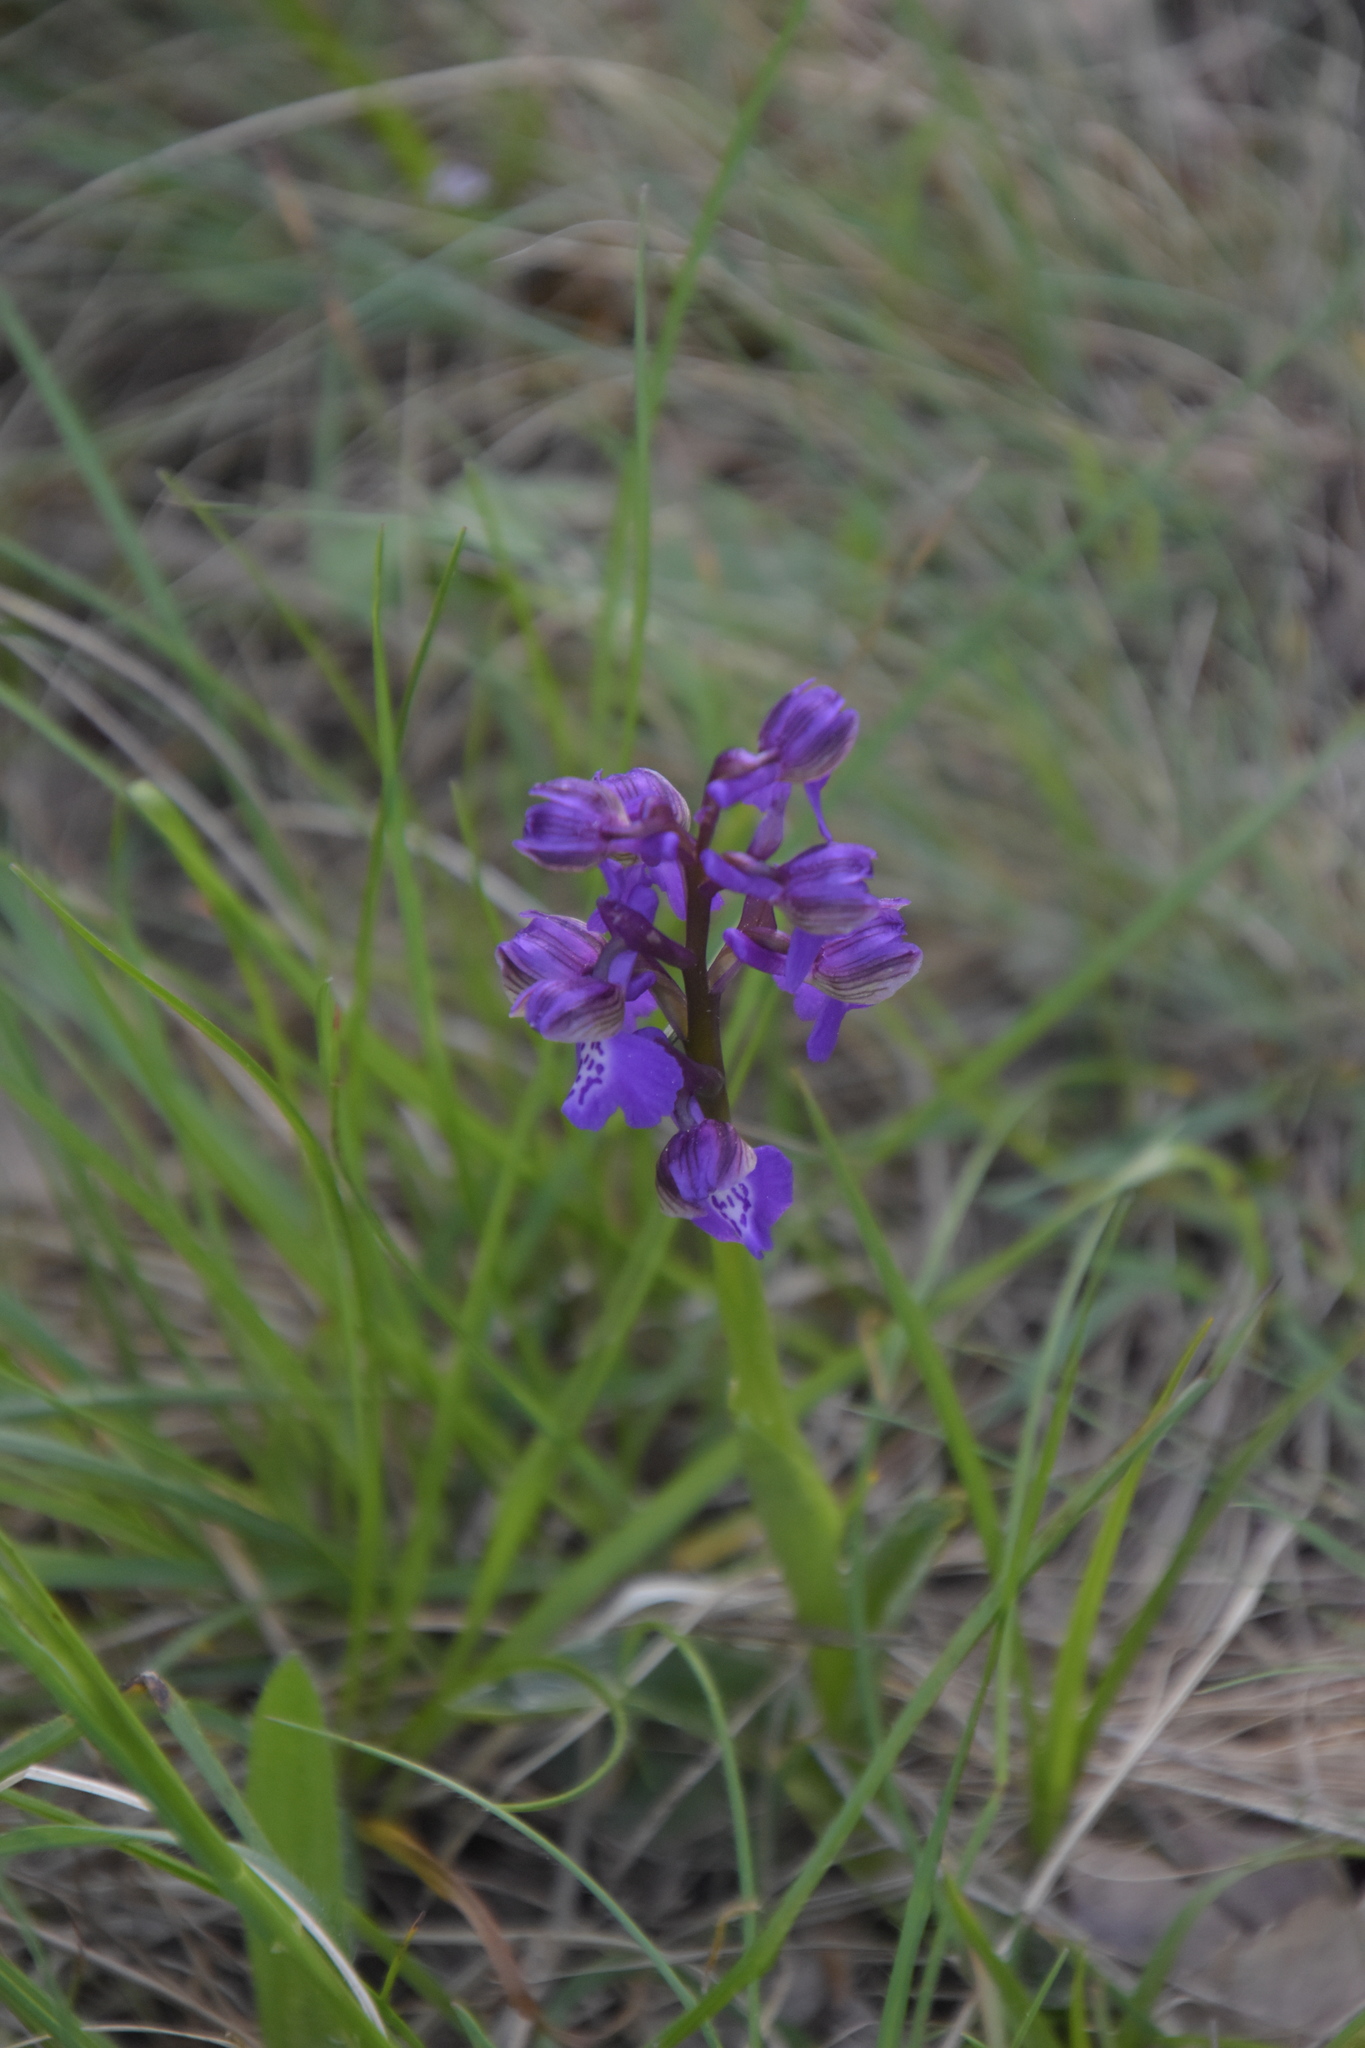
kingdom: Plantae
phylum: Tracheophyta
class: Liliopsida
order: Asparagales
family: Orchidaceae
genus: Anacamptis
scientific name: Anacamptis morio
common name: Green-winged orchid
